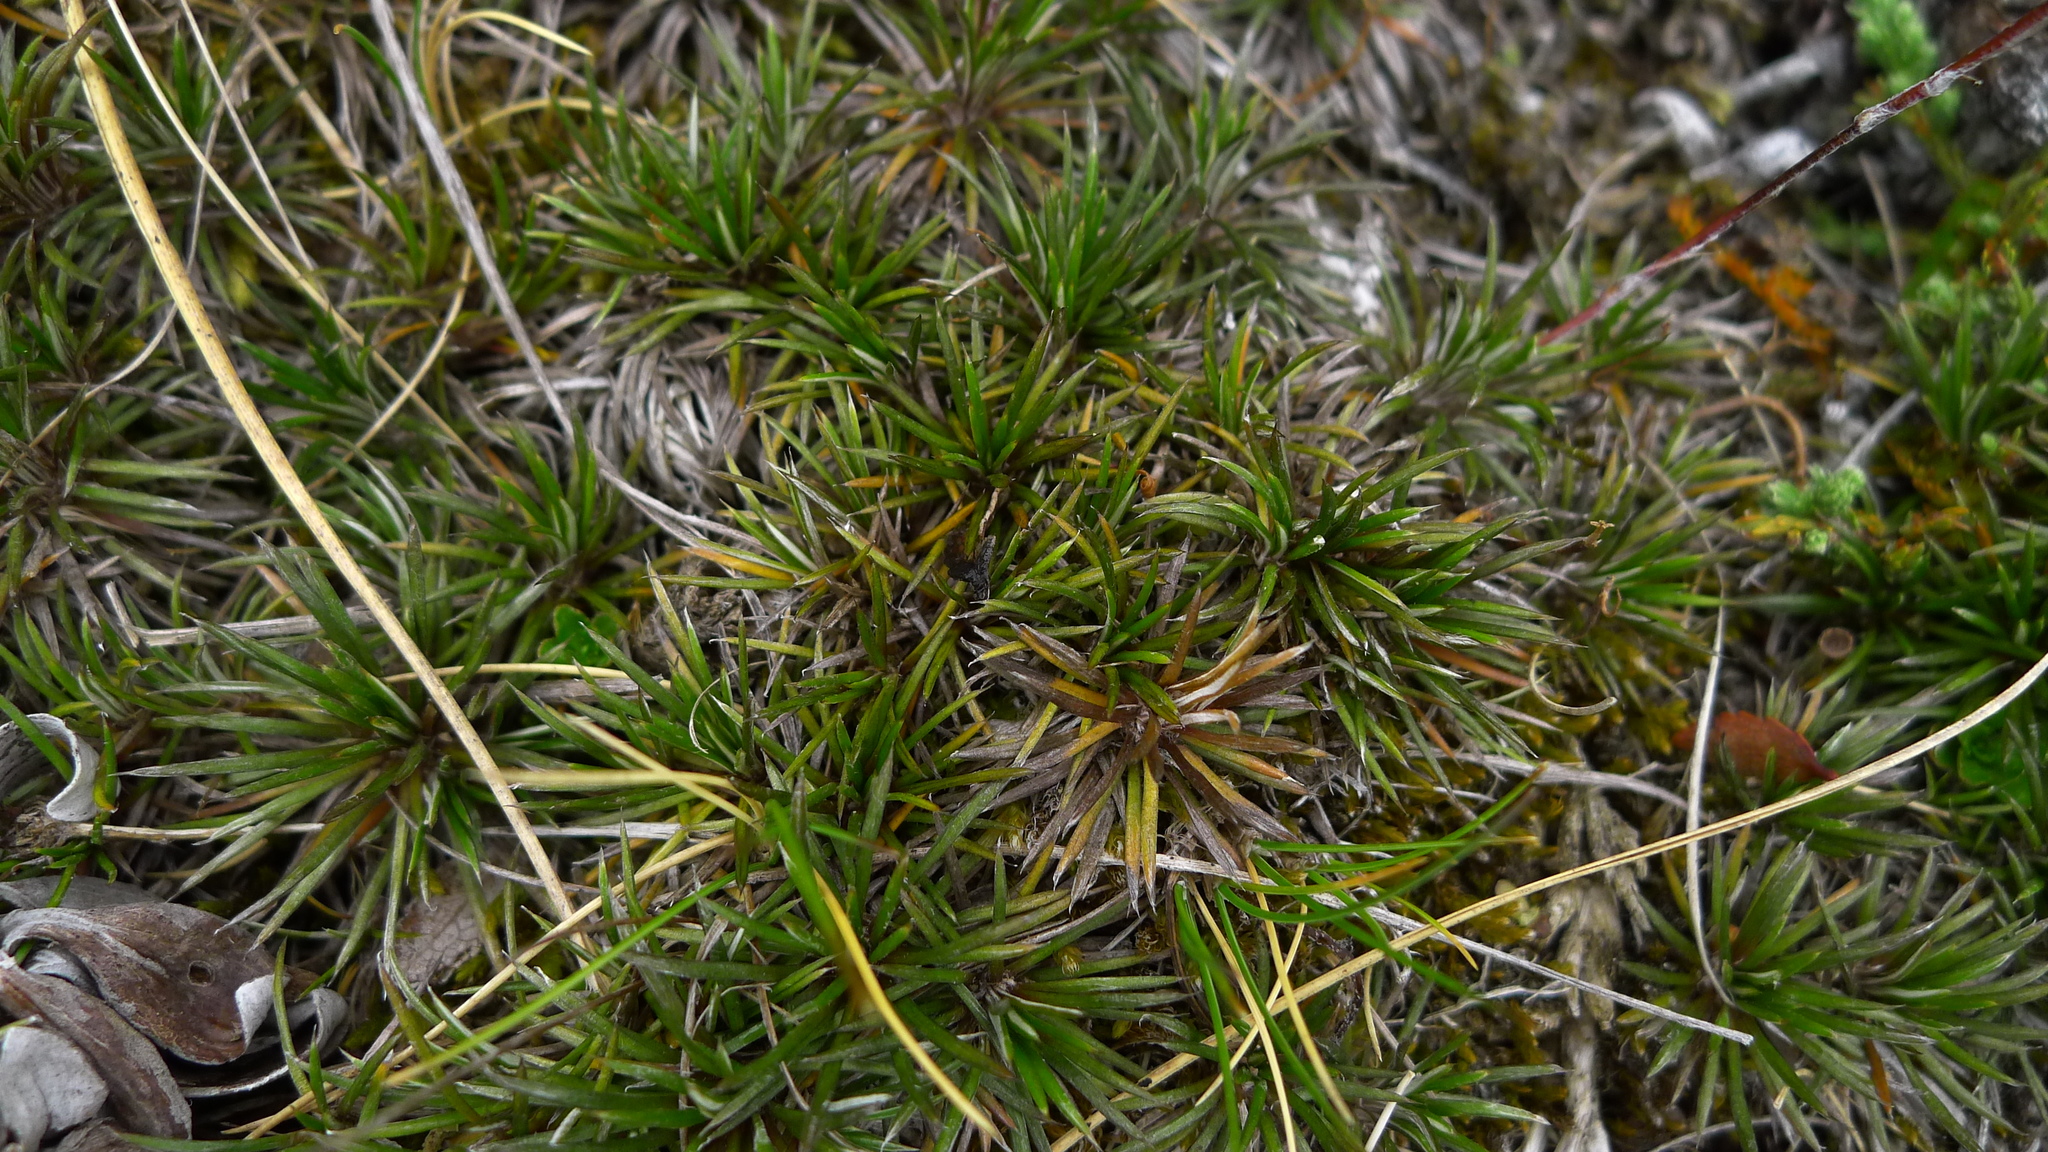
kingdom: Plantae
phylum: Tracheophyta
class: Magnoliopsida
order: Asterales
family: Asteraceae
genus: Celmisia
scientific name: Celmisia laricifolia
